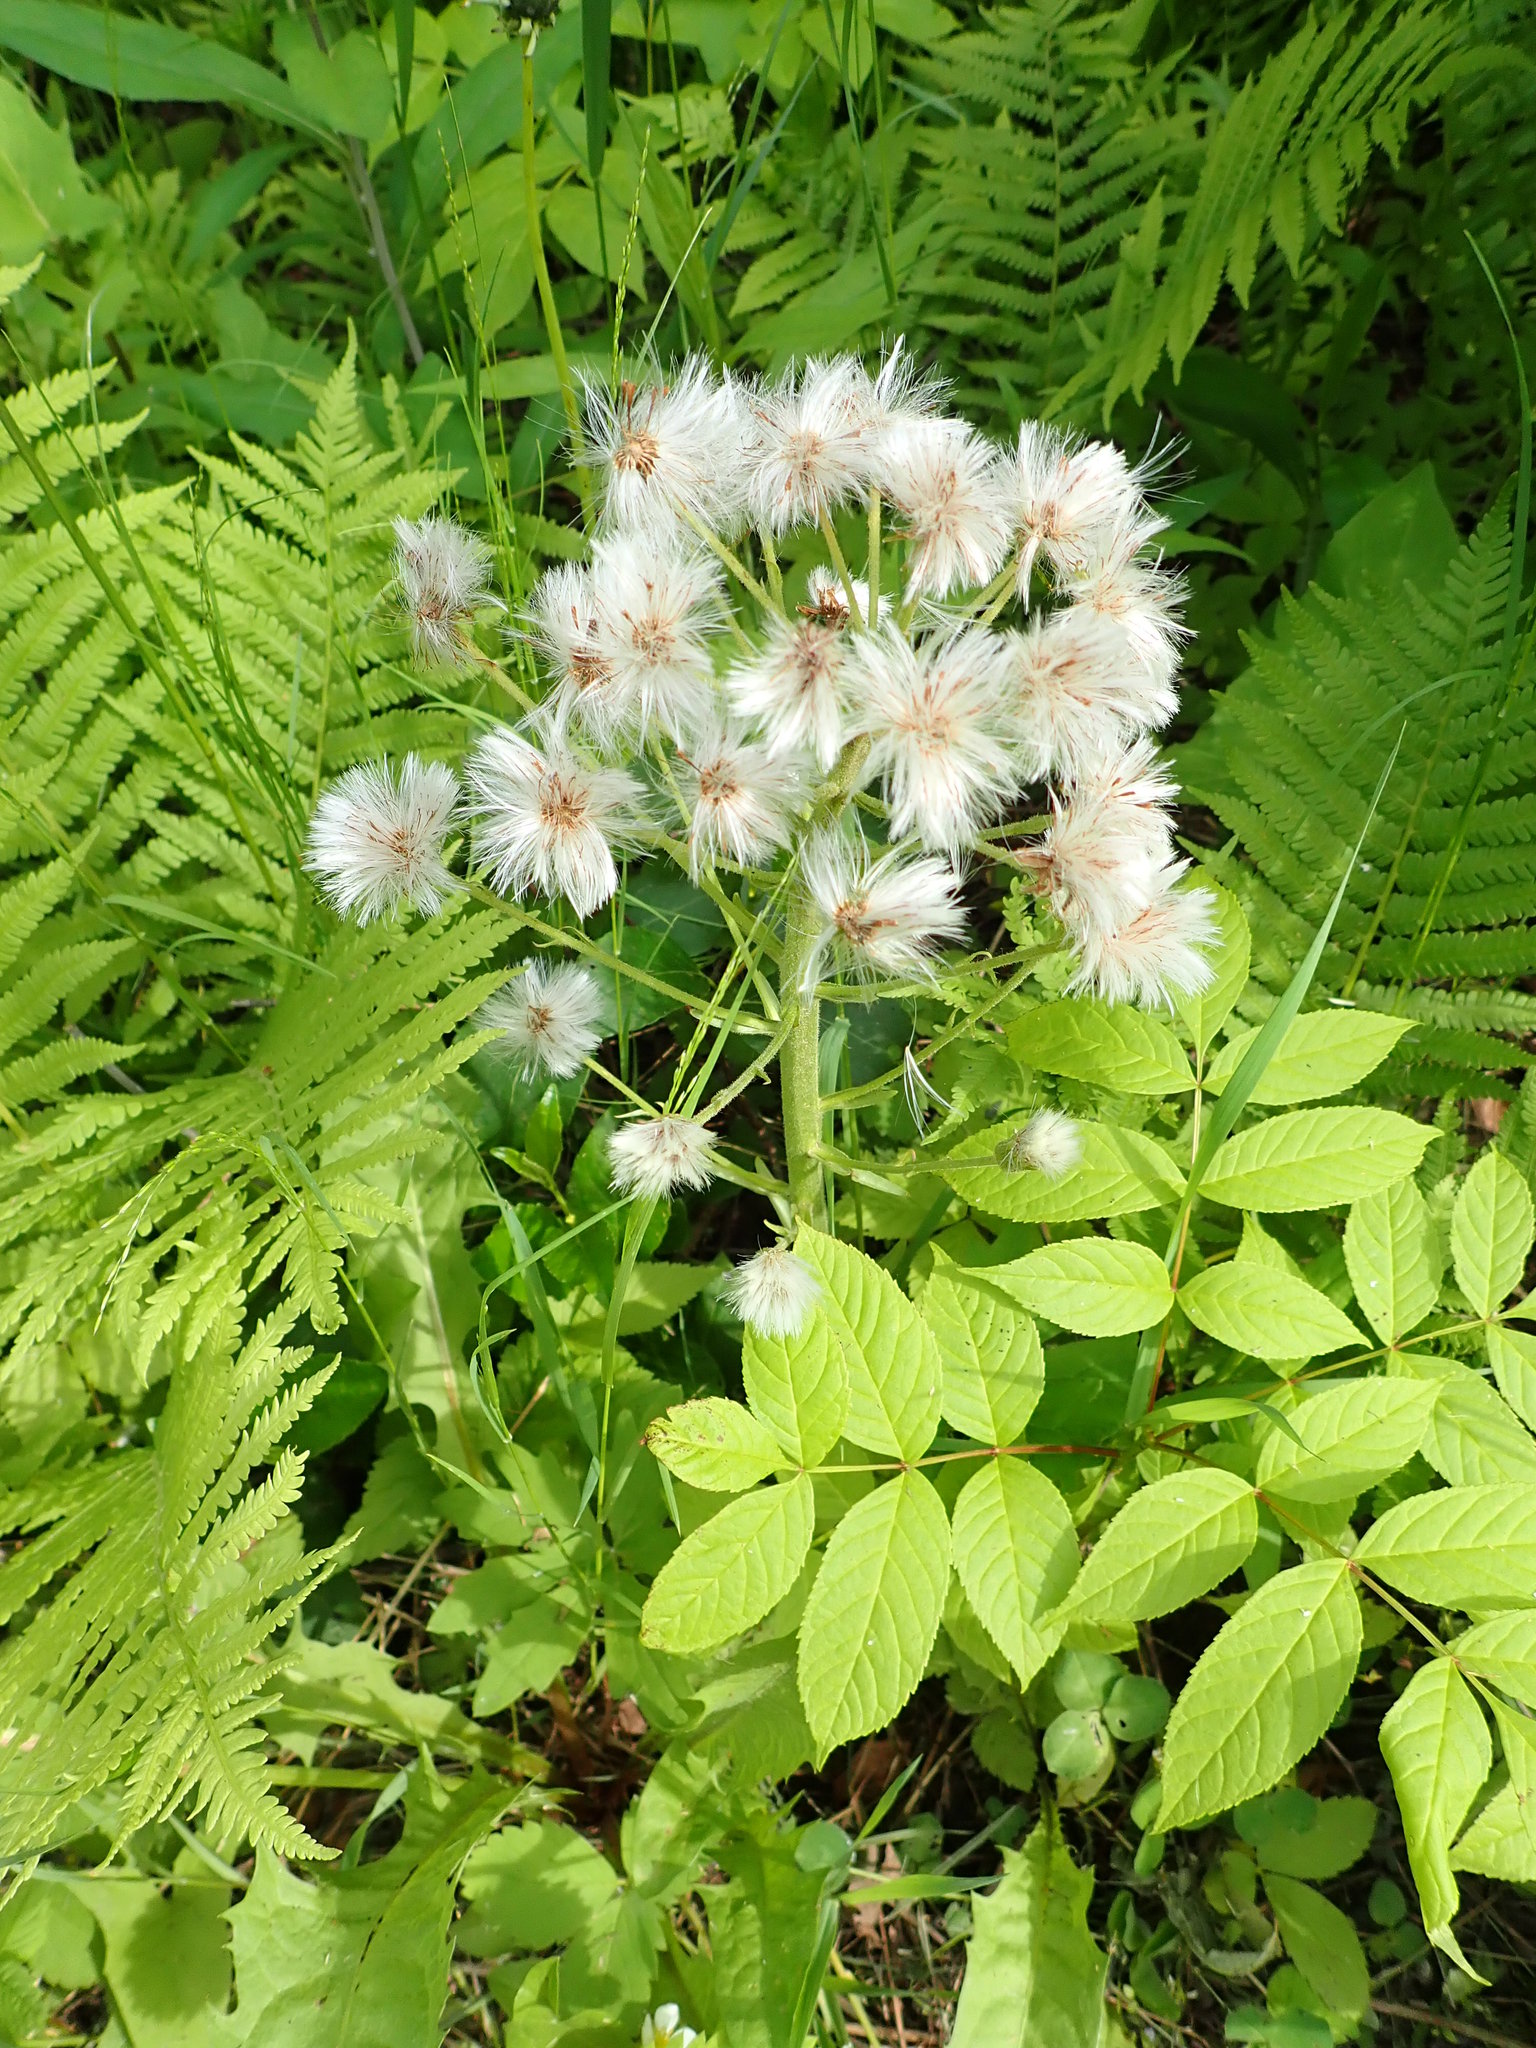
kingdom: Plantae
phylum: Tracheophyta
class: Magnoliopsida
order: Asterales
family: Asteraceae
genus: Petasites
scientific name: Petasites frigidus
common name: Arctic butterbur
